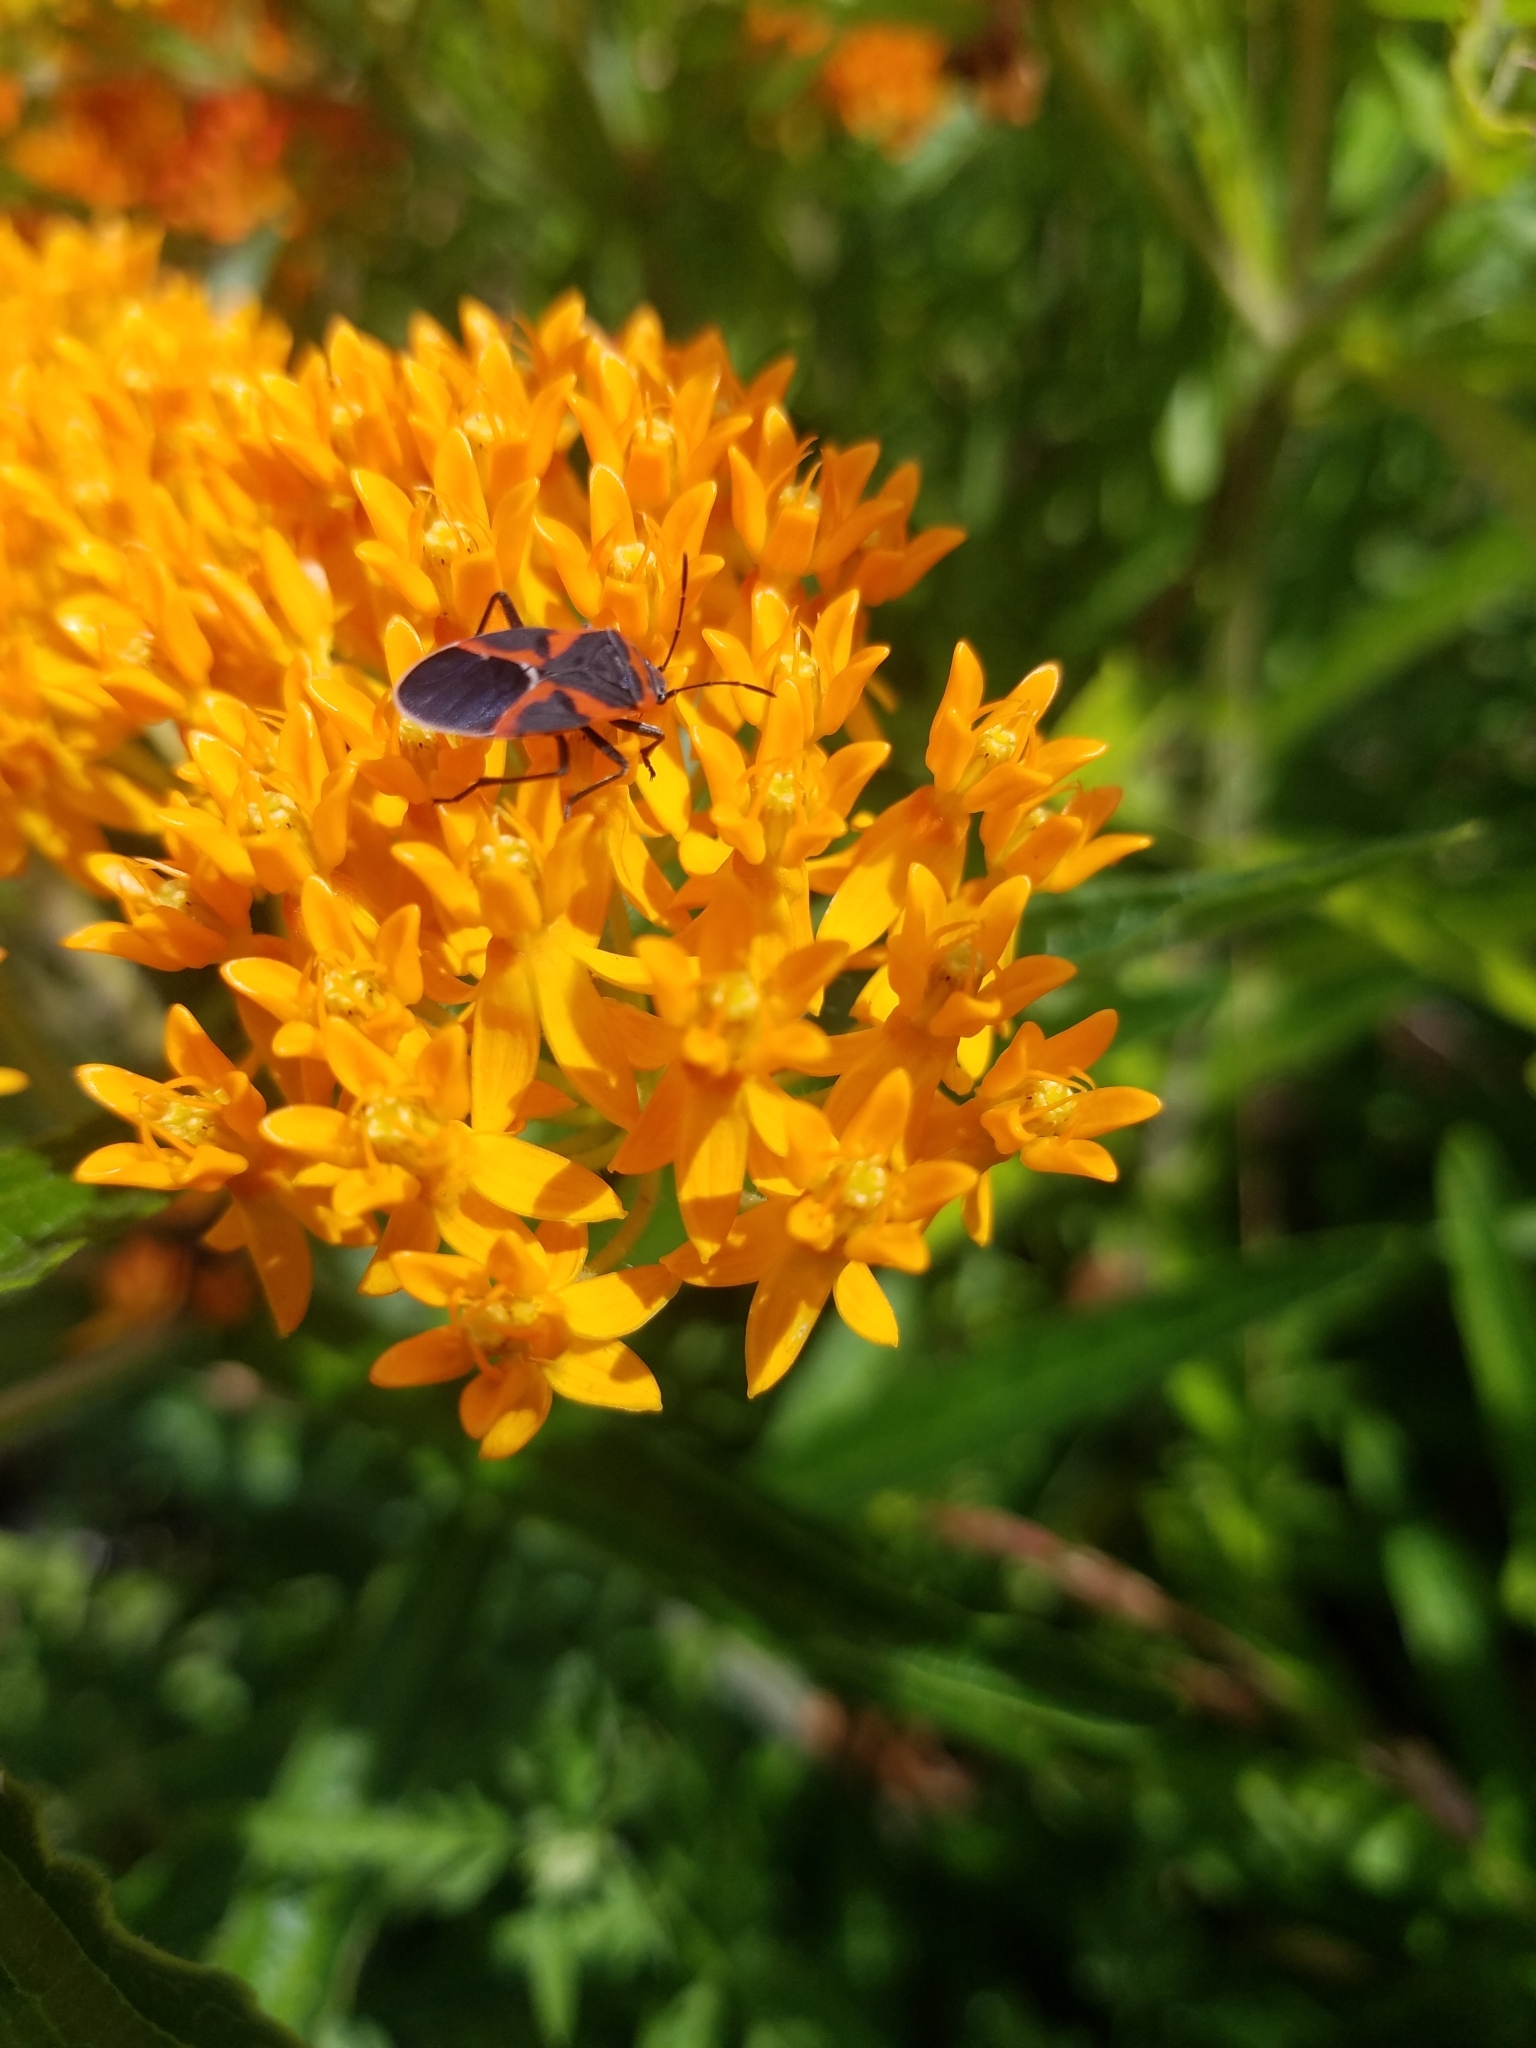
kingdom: Animalia
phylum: Arthropoda
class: Insecta
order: Hemiptera
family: Lygaeidae
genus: Lygaeus
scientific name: Lygaeus kalmii
